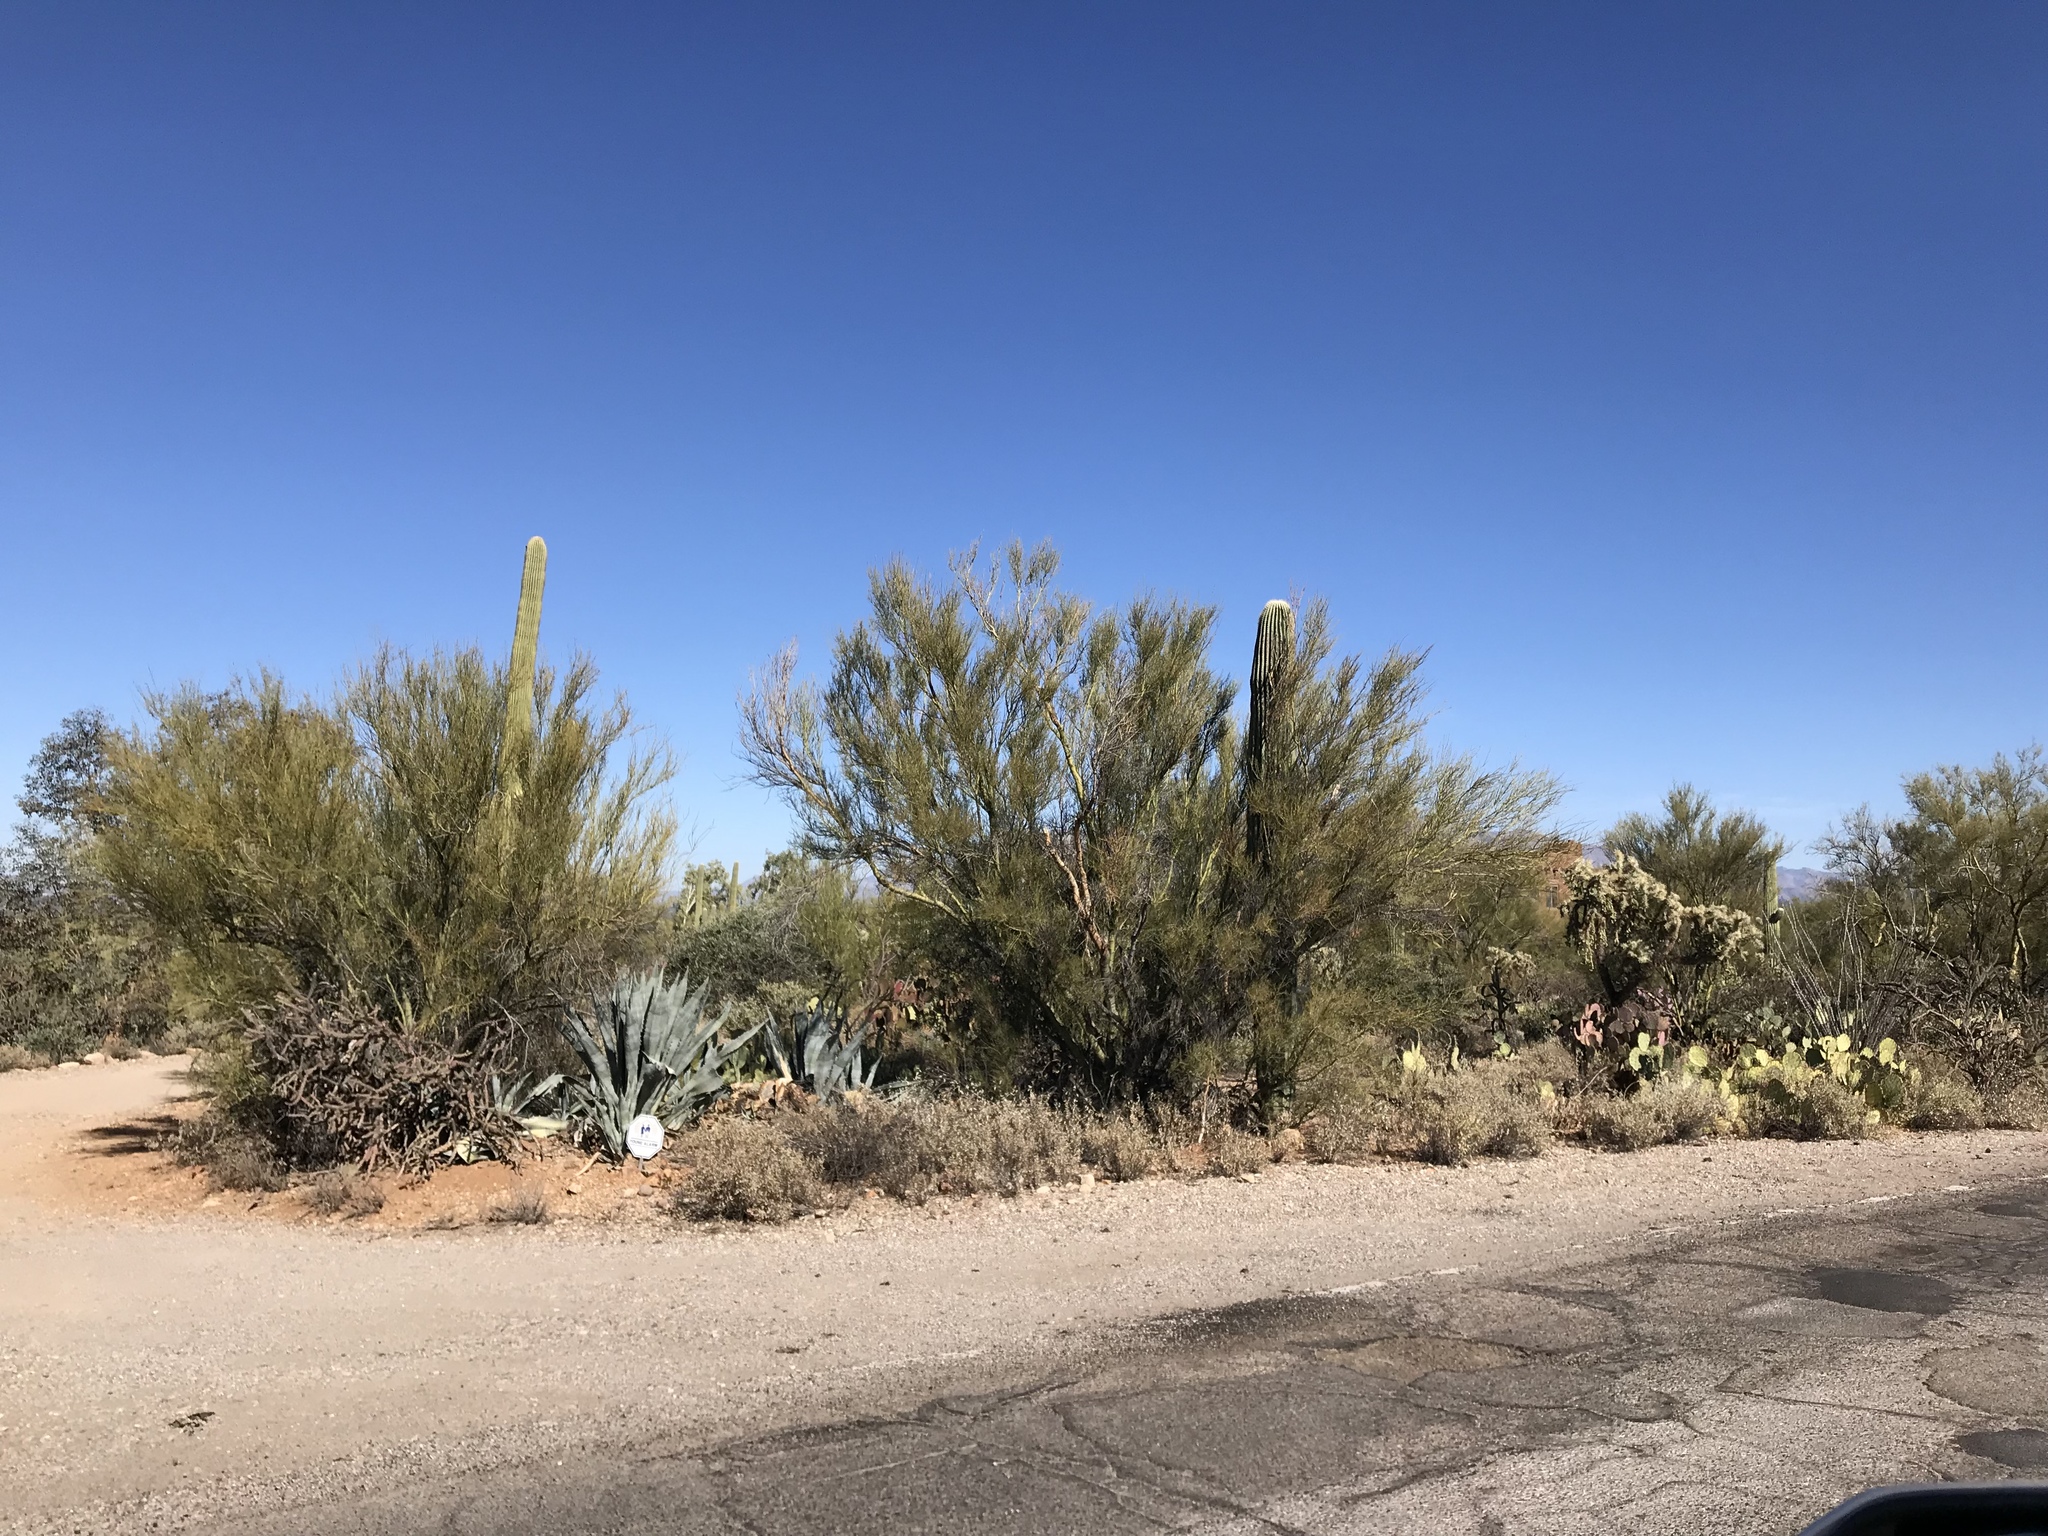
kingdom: Plantae
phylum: Tracheophyta
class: Magnoliopsida
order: Fabales
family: Fabaceae
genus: Parkinsonia
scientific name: Parkinsonia florida
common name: Blue paloverde
